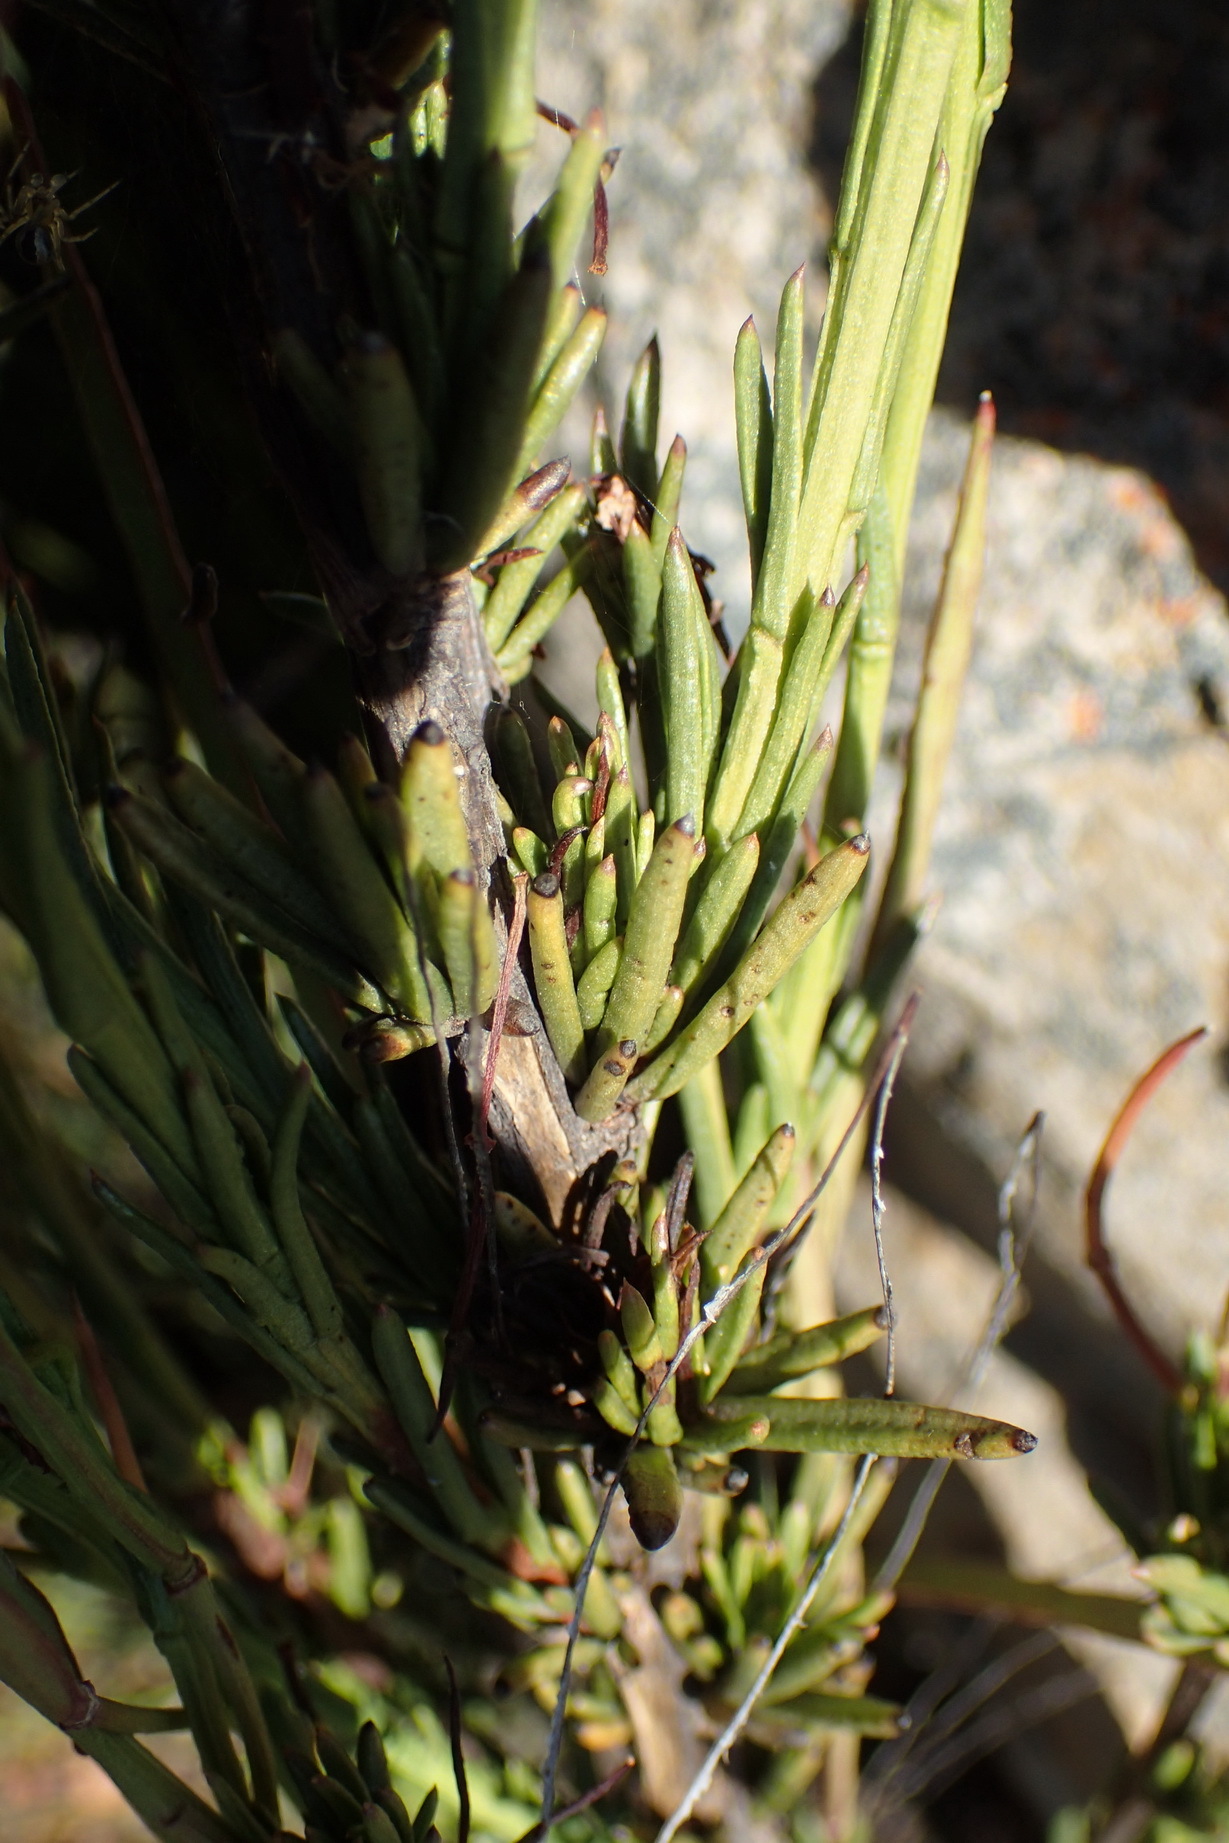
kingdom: Plantae
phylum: Tracheophyta
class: Magnoliopsida
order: Brassicales
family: Brassicaceae
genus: Heliophila
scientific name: Heliophila scoparia
